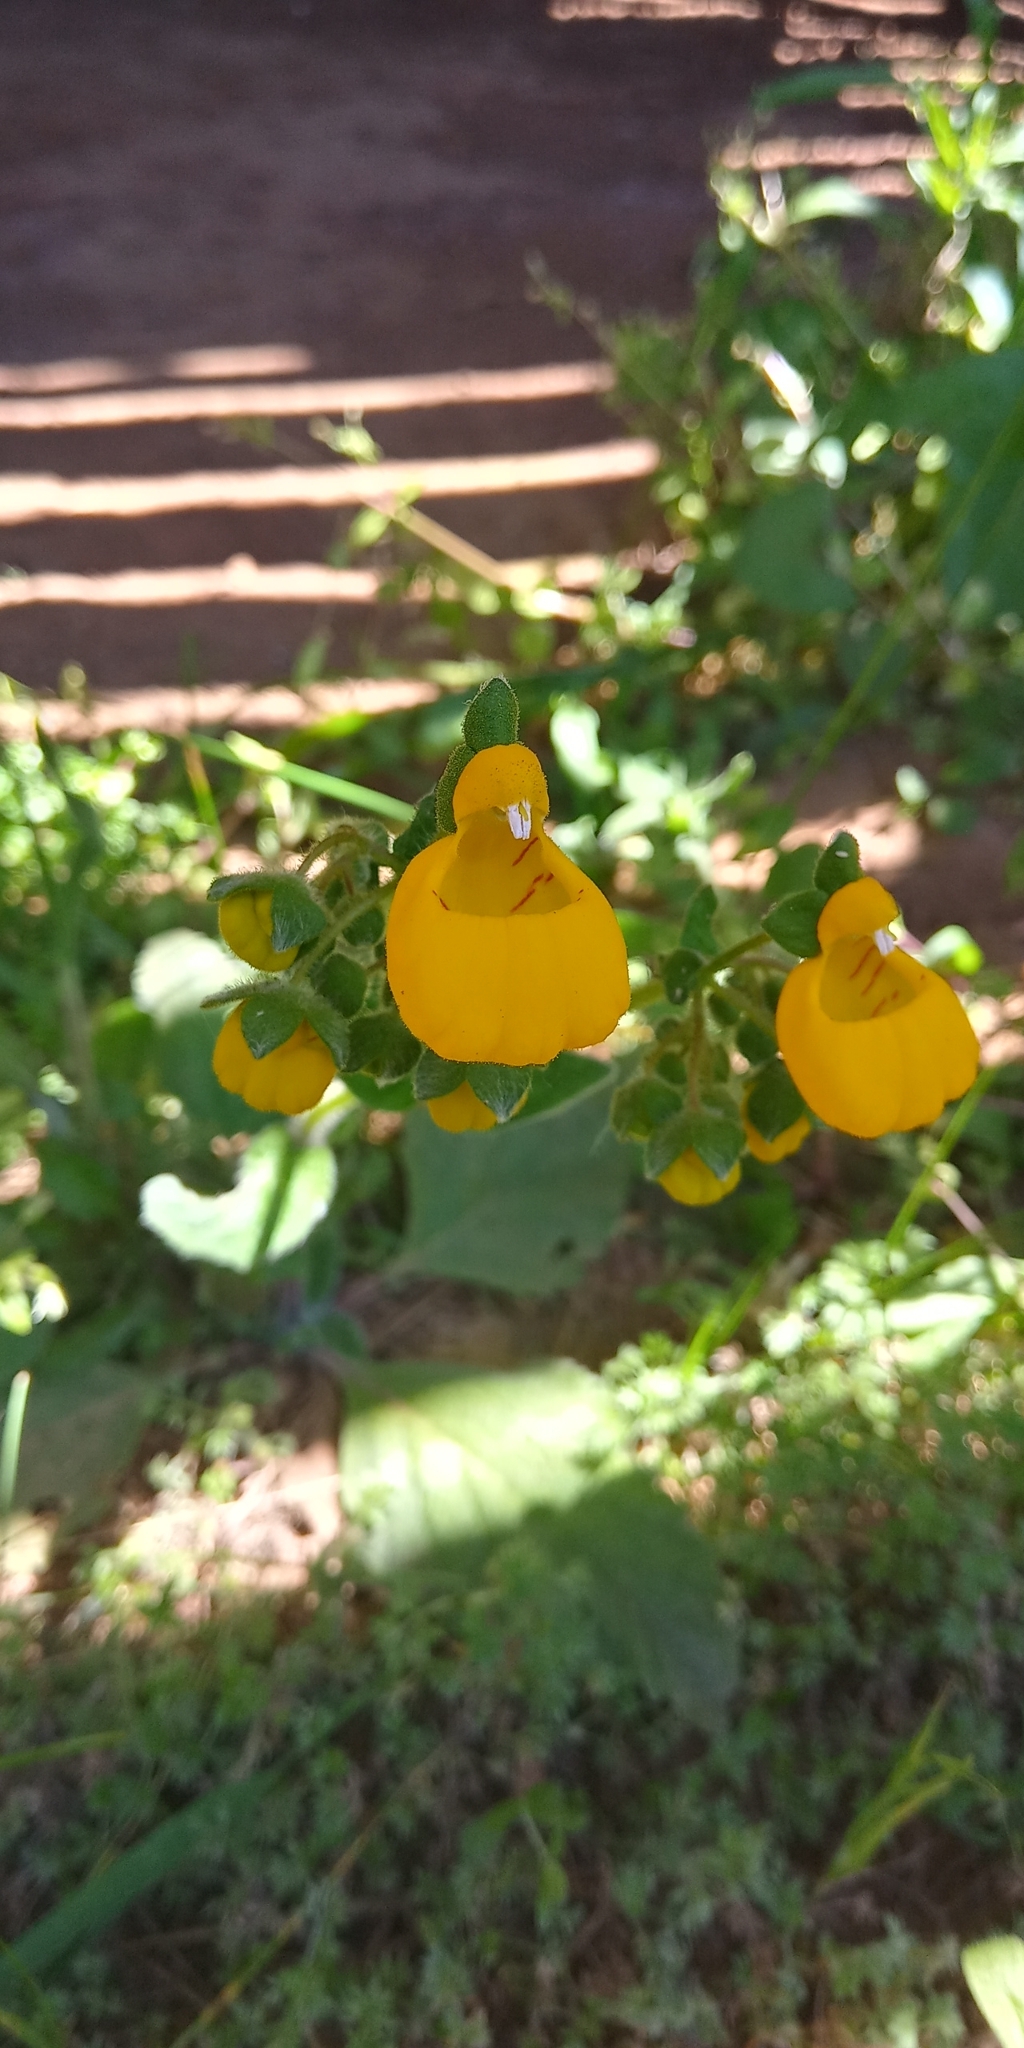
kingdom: Plantae
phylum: Tracheophyta
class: Magnoliopsida
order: Lamiales
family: Calceolariaceae
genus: Calceolaria
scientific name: Calceolaria corymbosa
